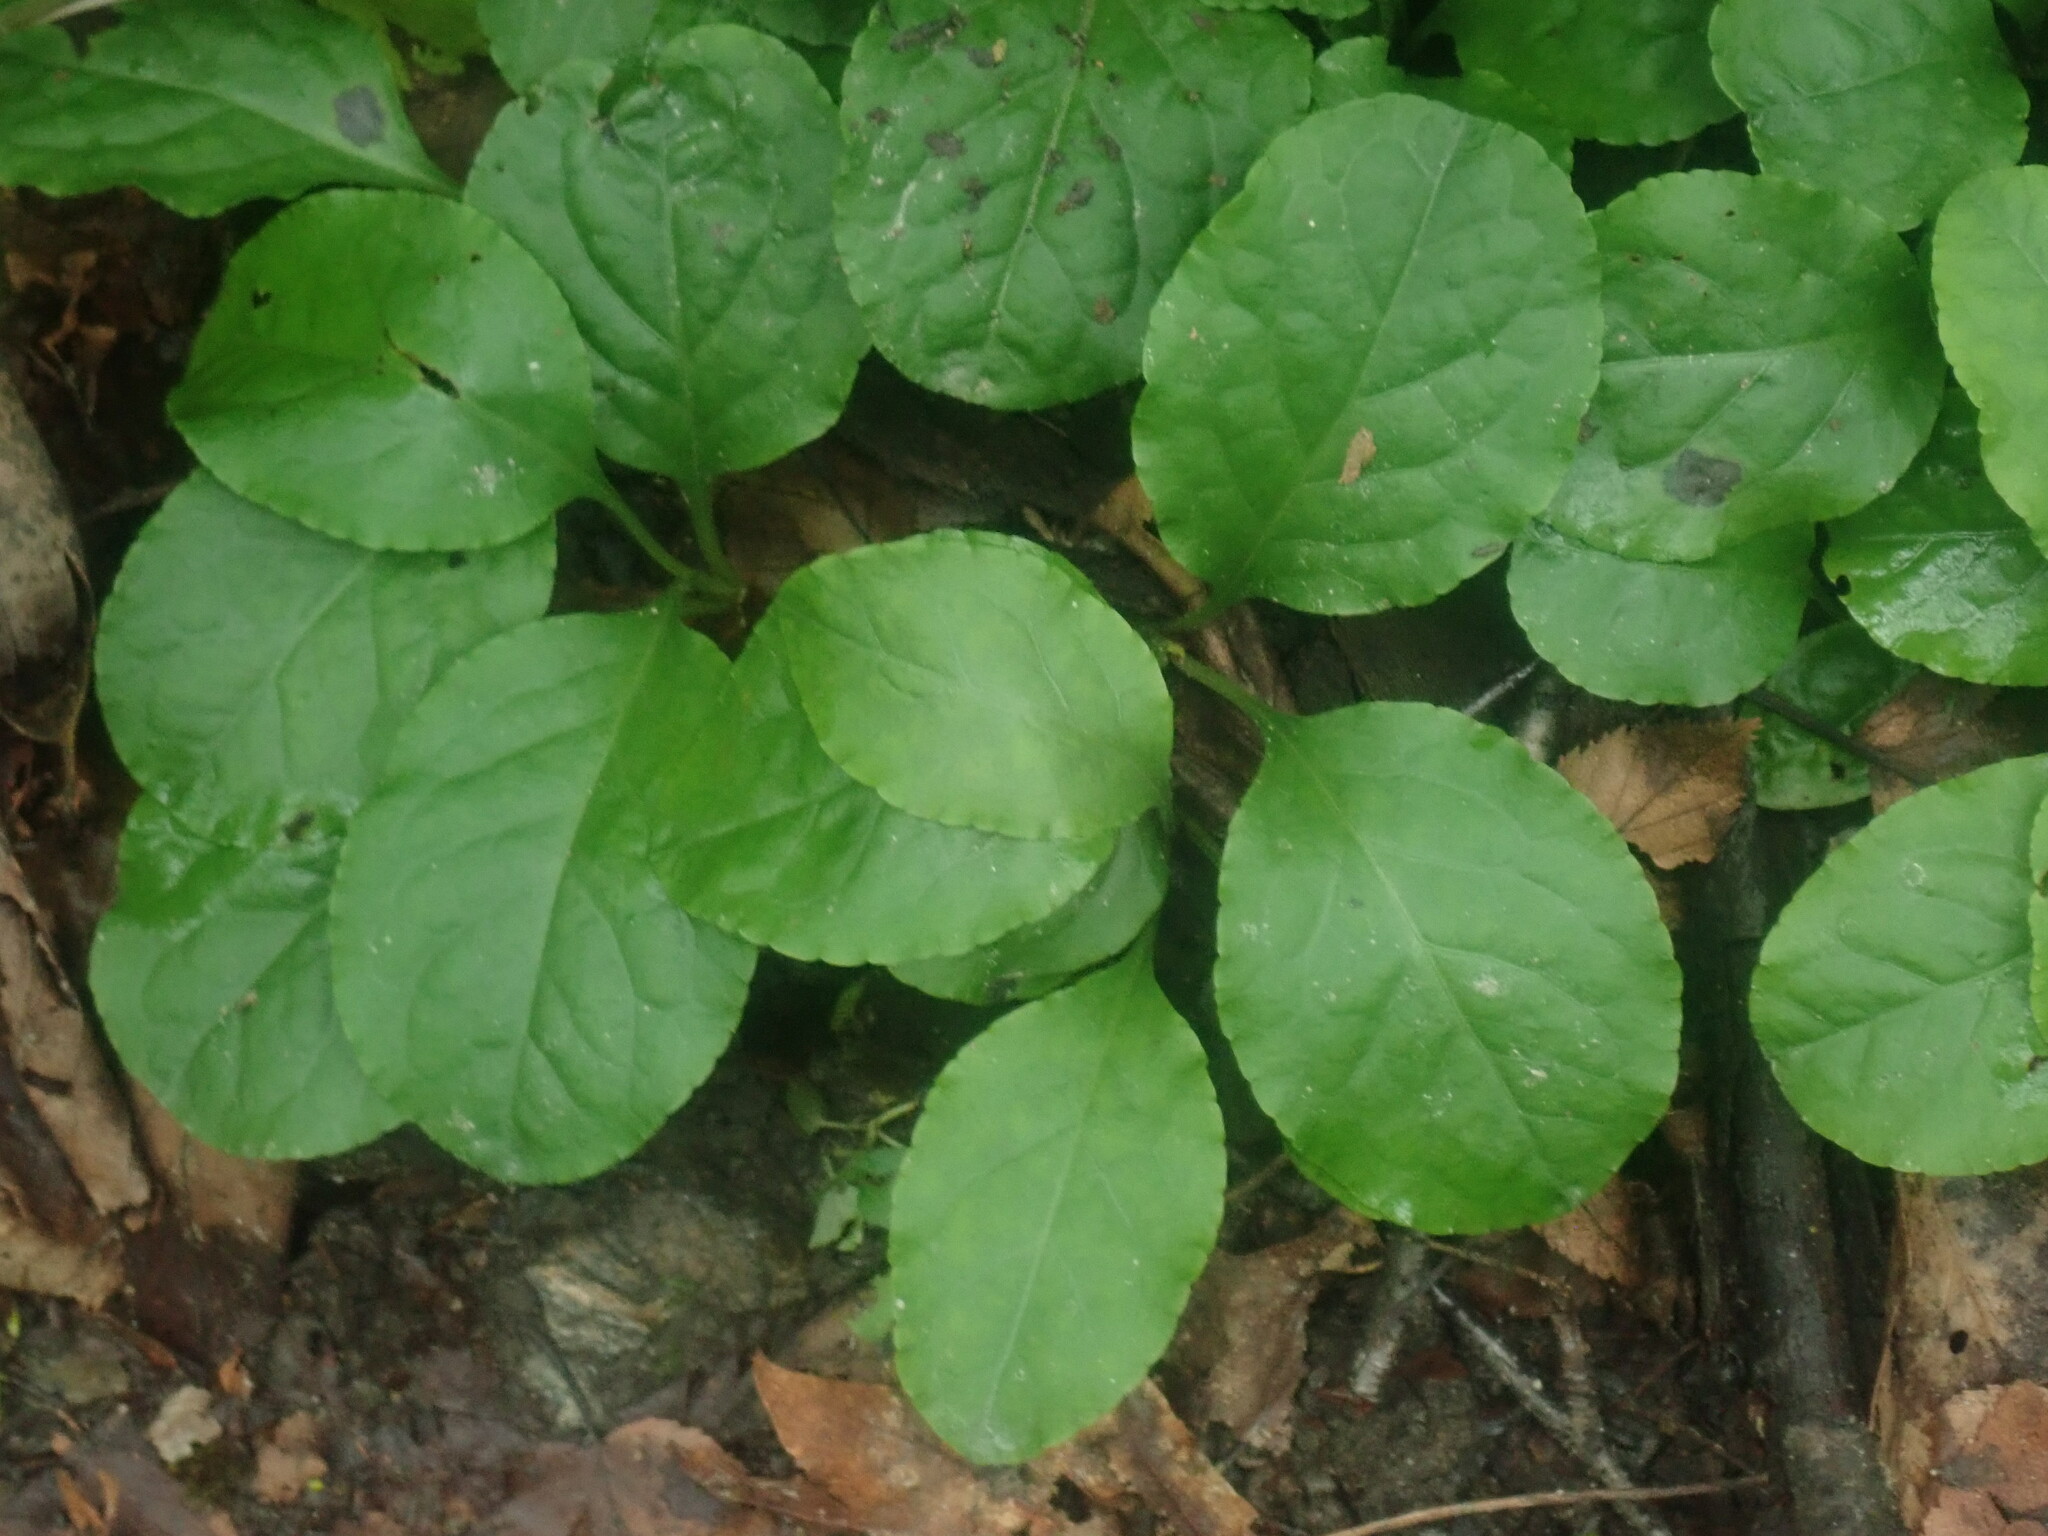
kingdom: Plantae
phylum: Tracheophyta
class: Magnoliopsida
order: Ericales
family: Ericaceae
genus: Pyrola
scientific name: Pyrola elliptica
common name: Shinleaf
